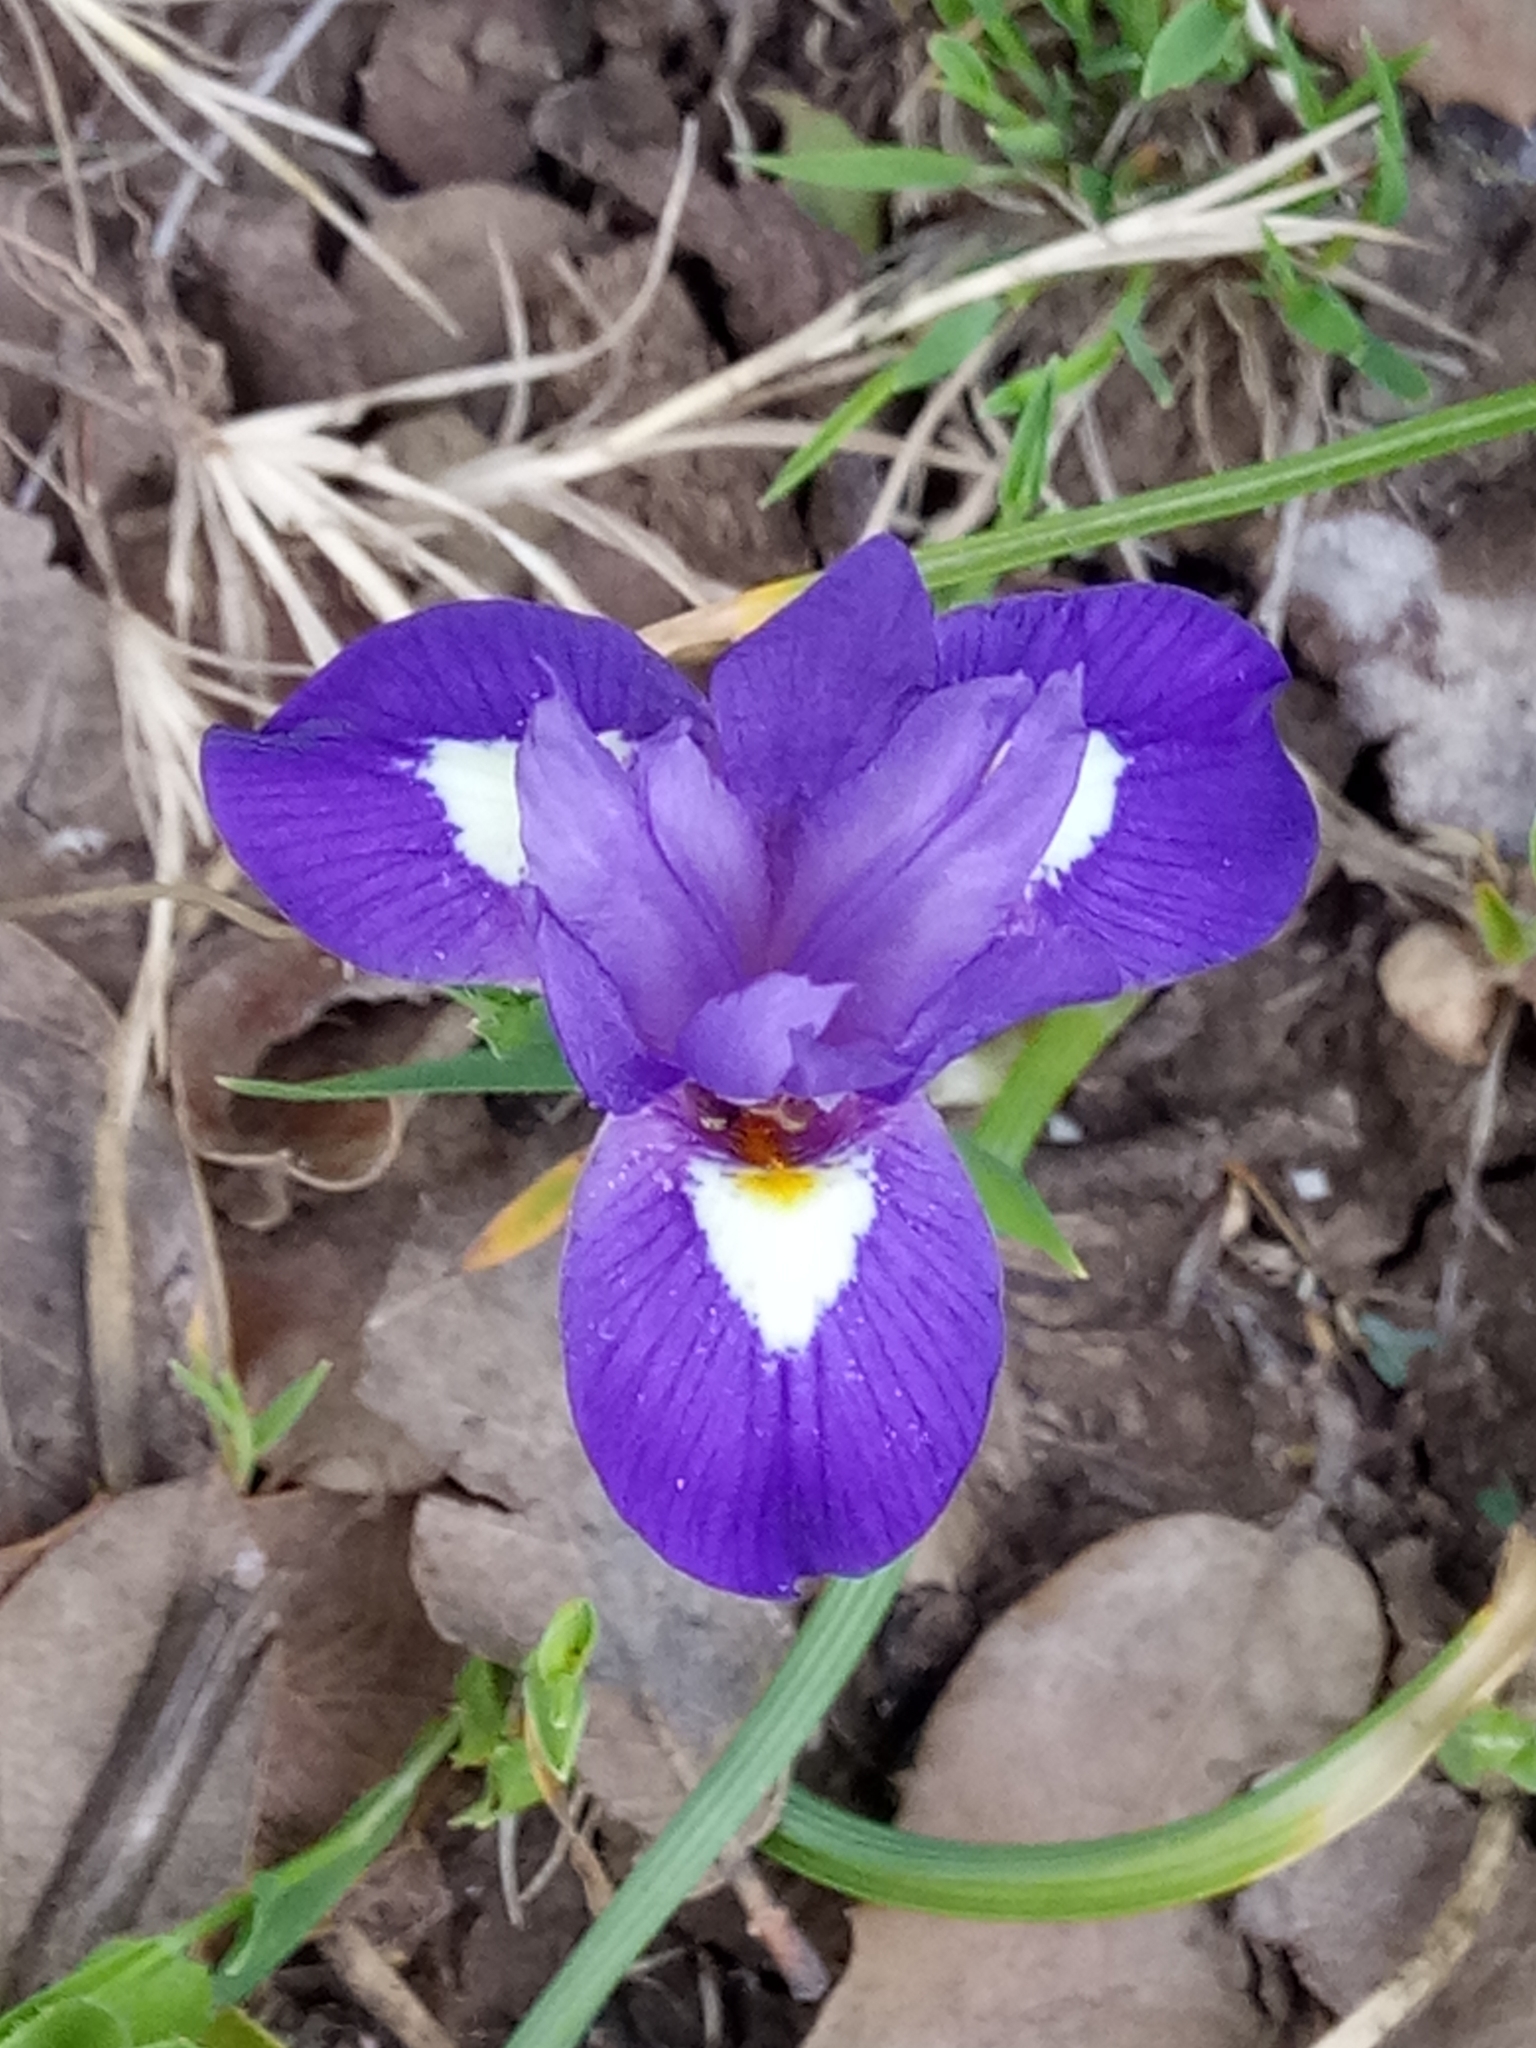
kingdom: Plantae
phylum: Tracheophyta
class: Liliopsida
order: Asparagales
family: Iridaceae
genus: Moraea
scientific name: Moraea sisyrinchium
